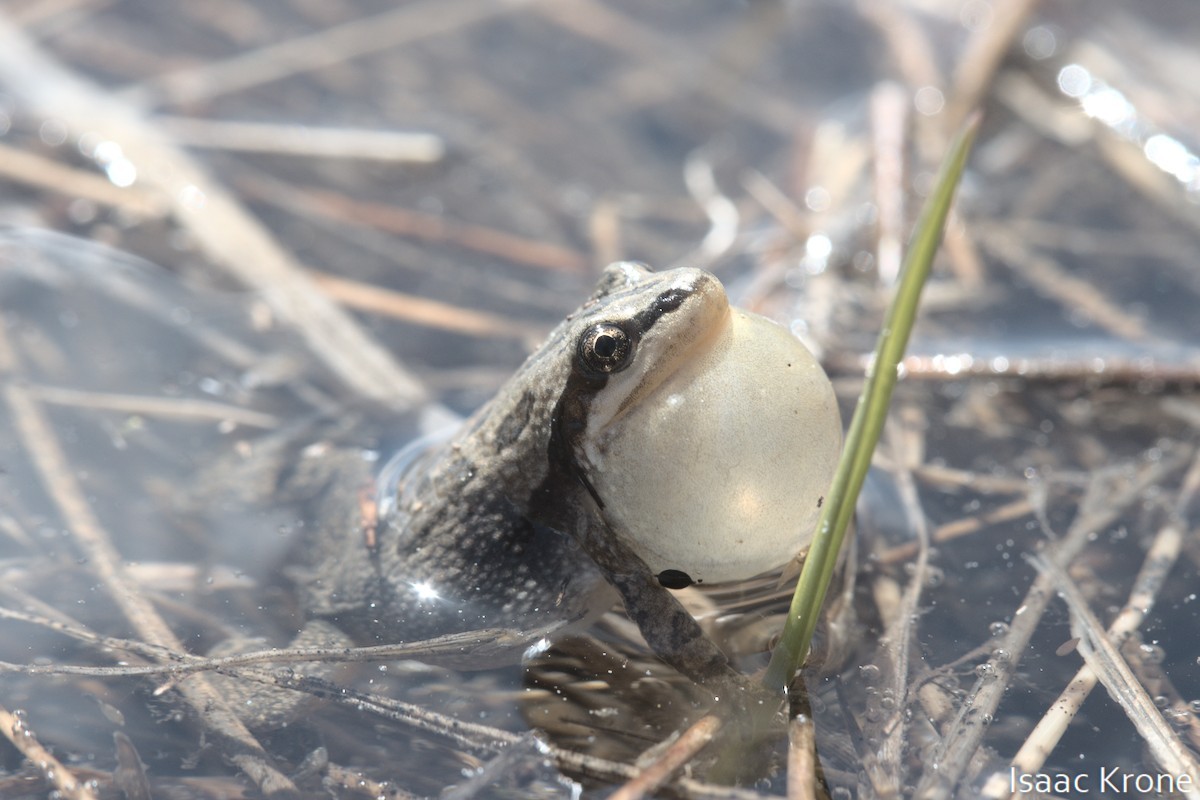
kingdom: Animalia
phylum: Chordata
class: Amphibia
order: Anura
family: Hylidae
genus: Pseudacris
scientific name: Pseudacris maculata
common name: Boreal chorus frog
